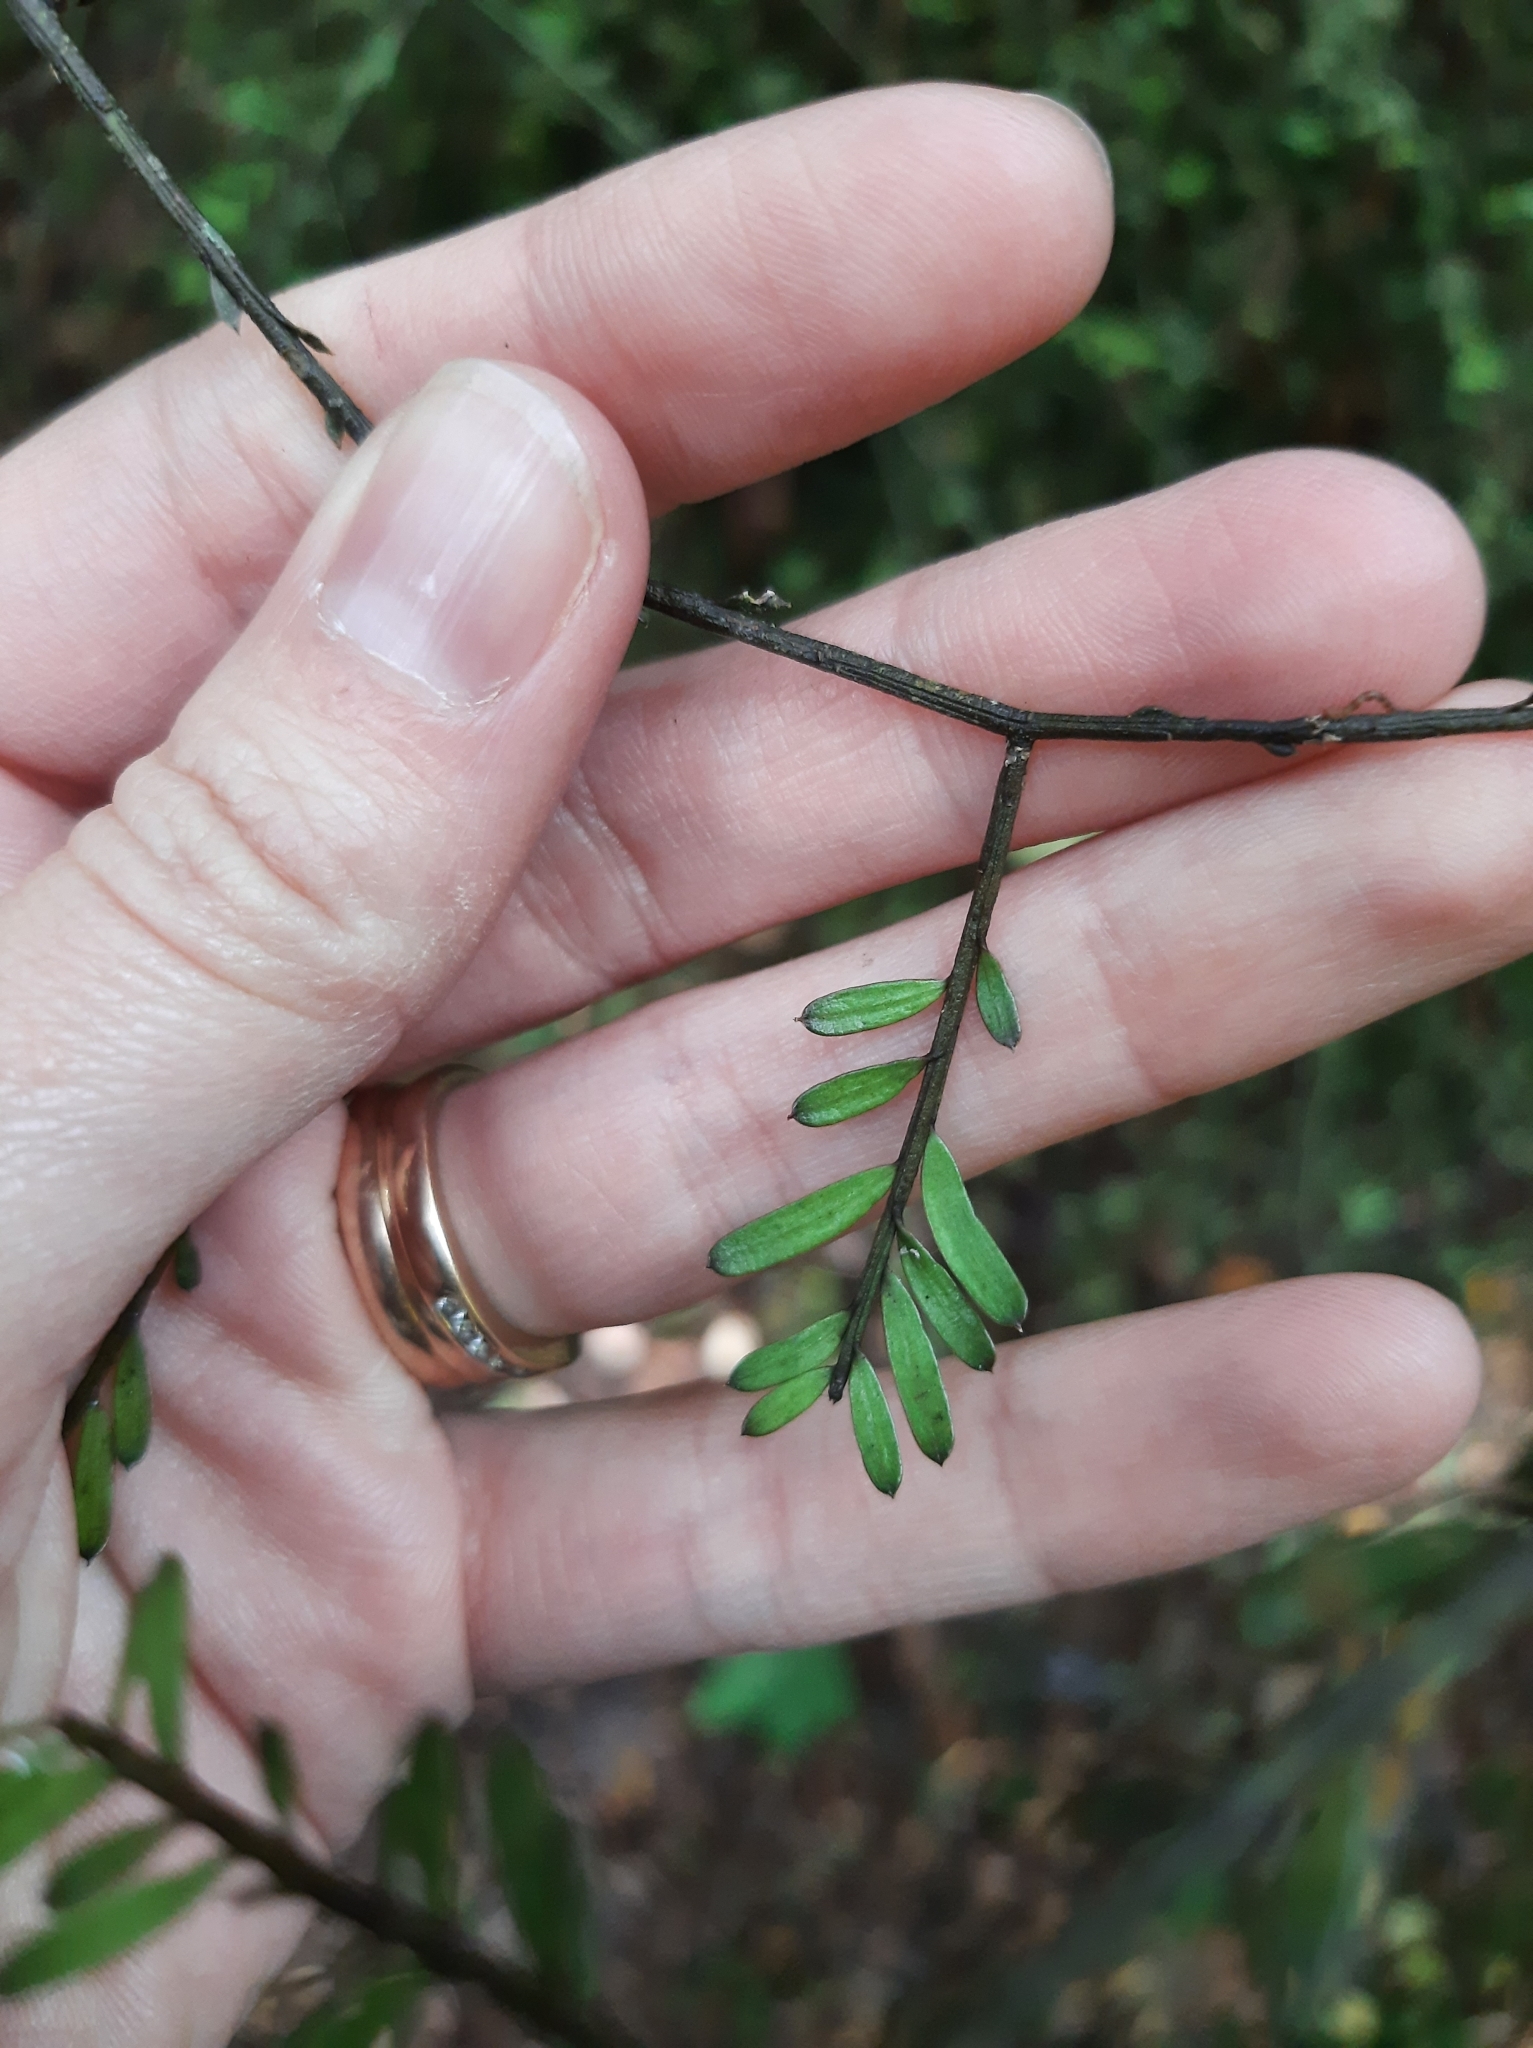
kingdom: Plantae
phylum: Tracheophyta
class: Pinopsida
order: Pinales
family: Podocarpaceae
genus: Prumnopitys
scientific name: Prumnopitys taxifolia
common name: Matai
